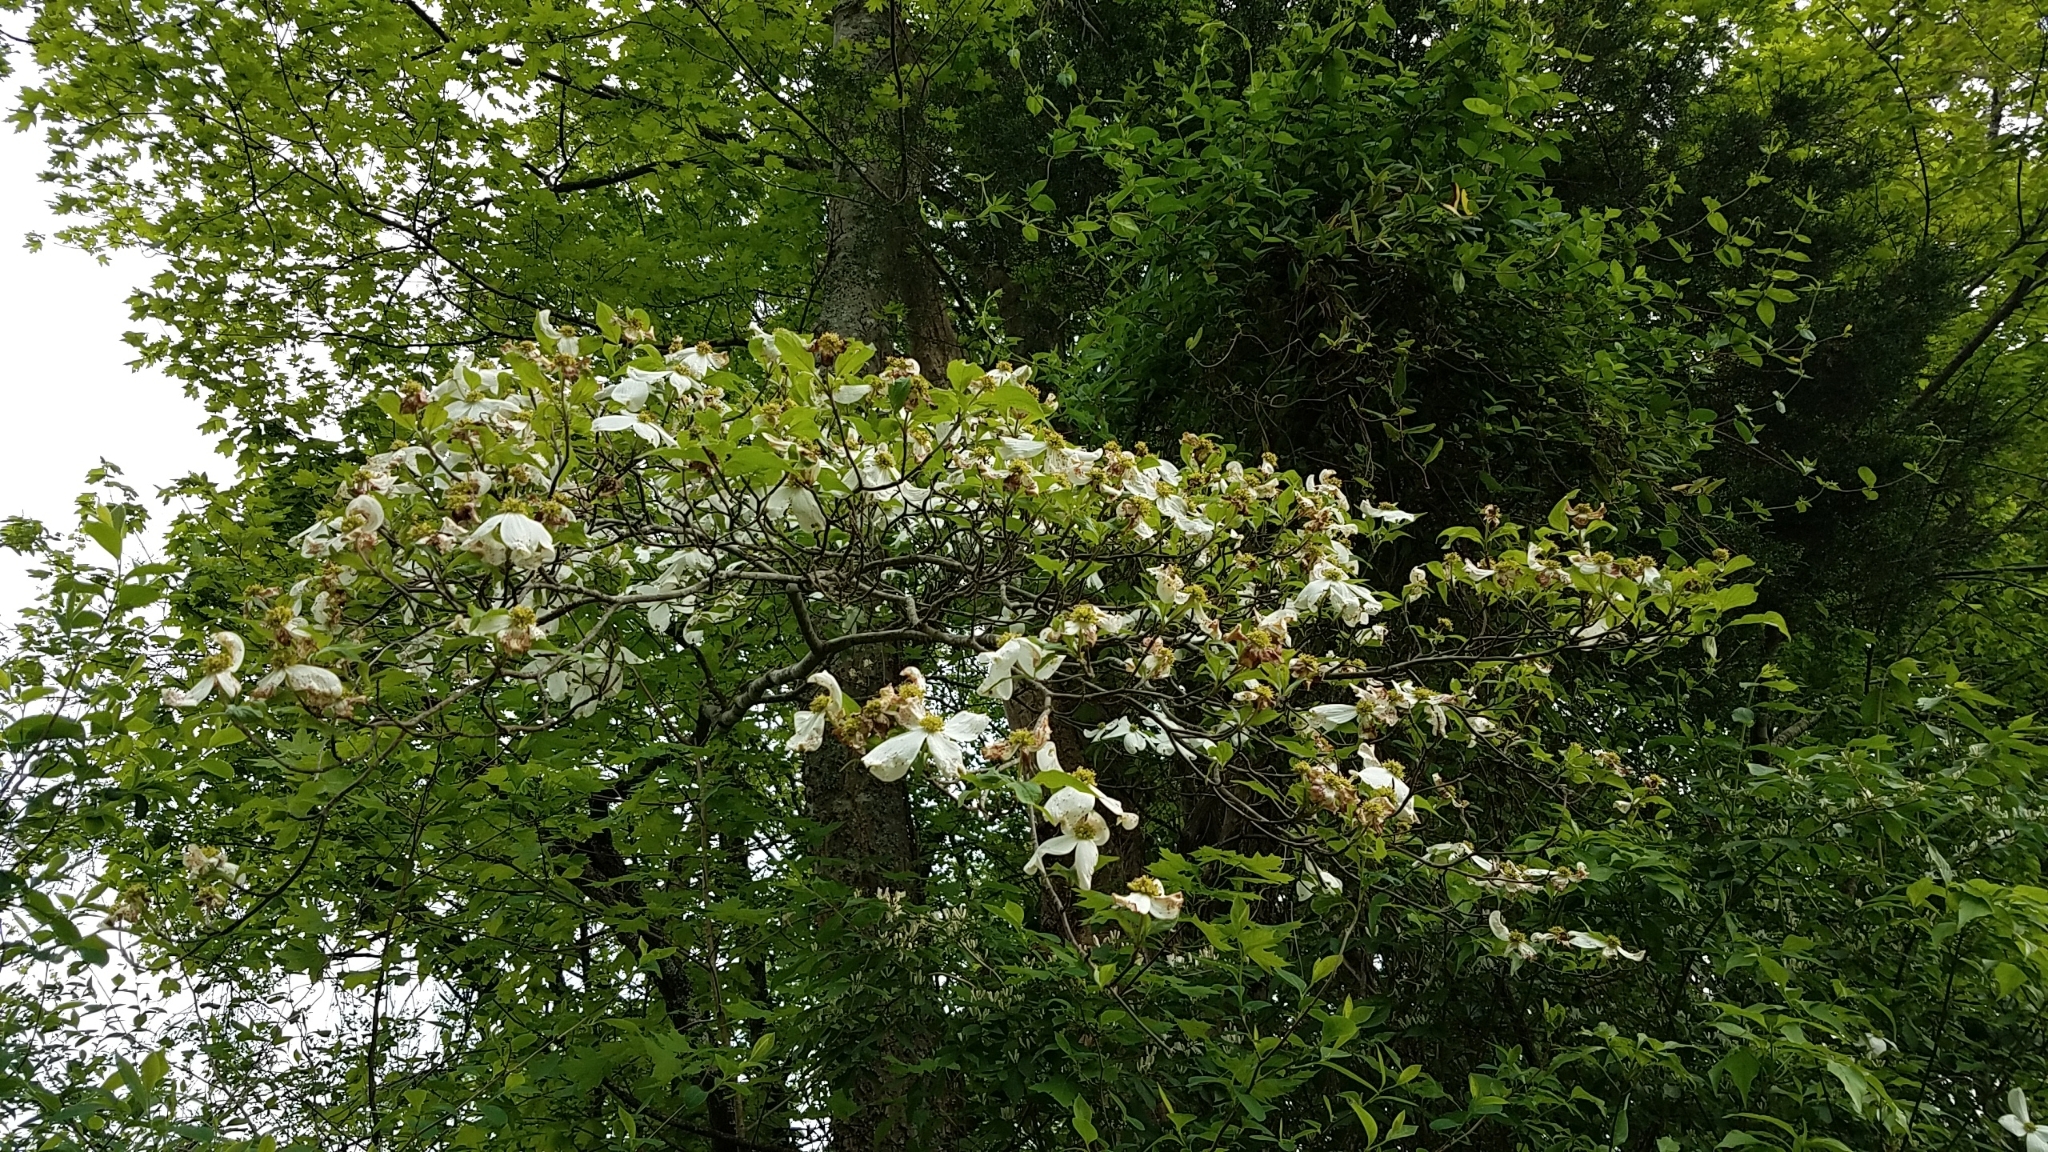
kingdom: Plantae
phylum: Tracheophyta
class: Magnoliopsida
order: Cornales
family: Cornaceae
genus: Cornus
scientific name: Cornus florida
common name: Flowering dogwood
